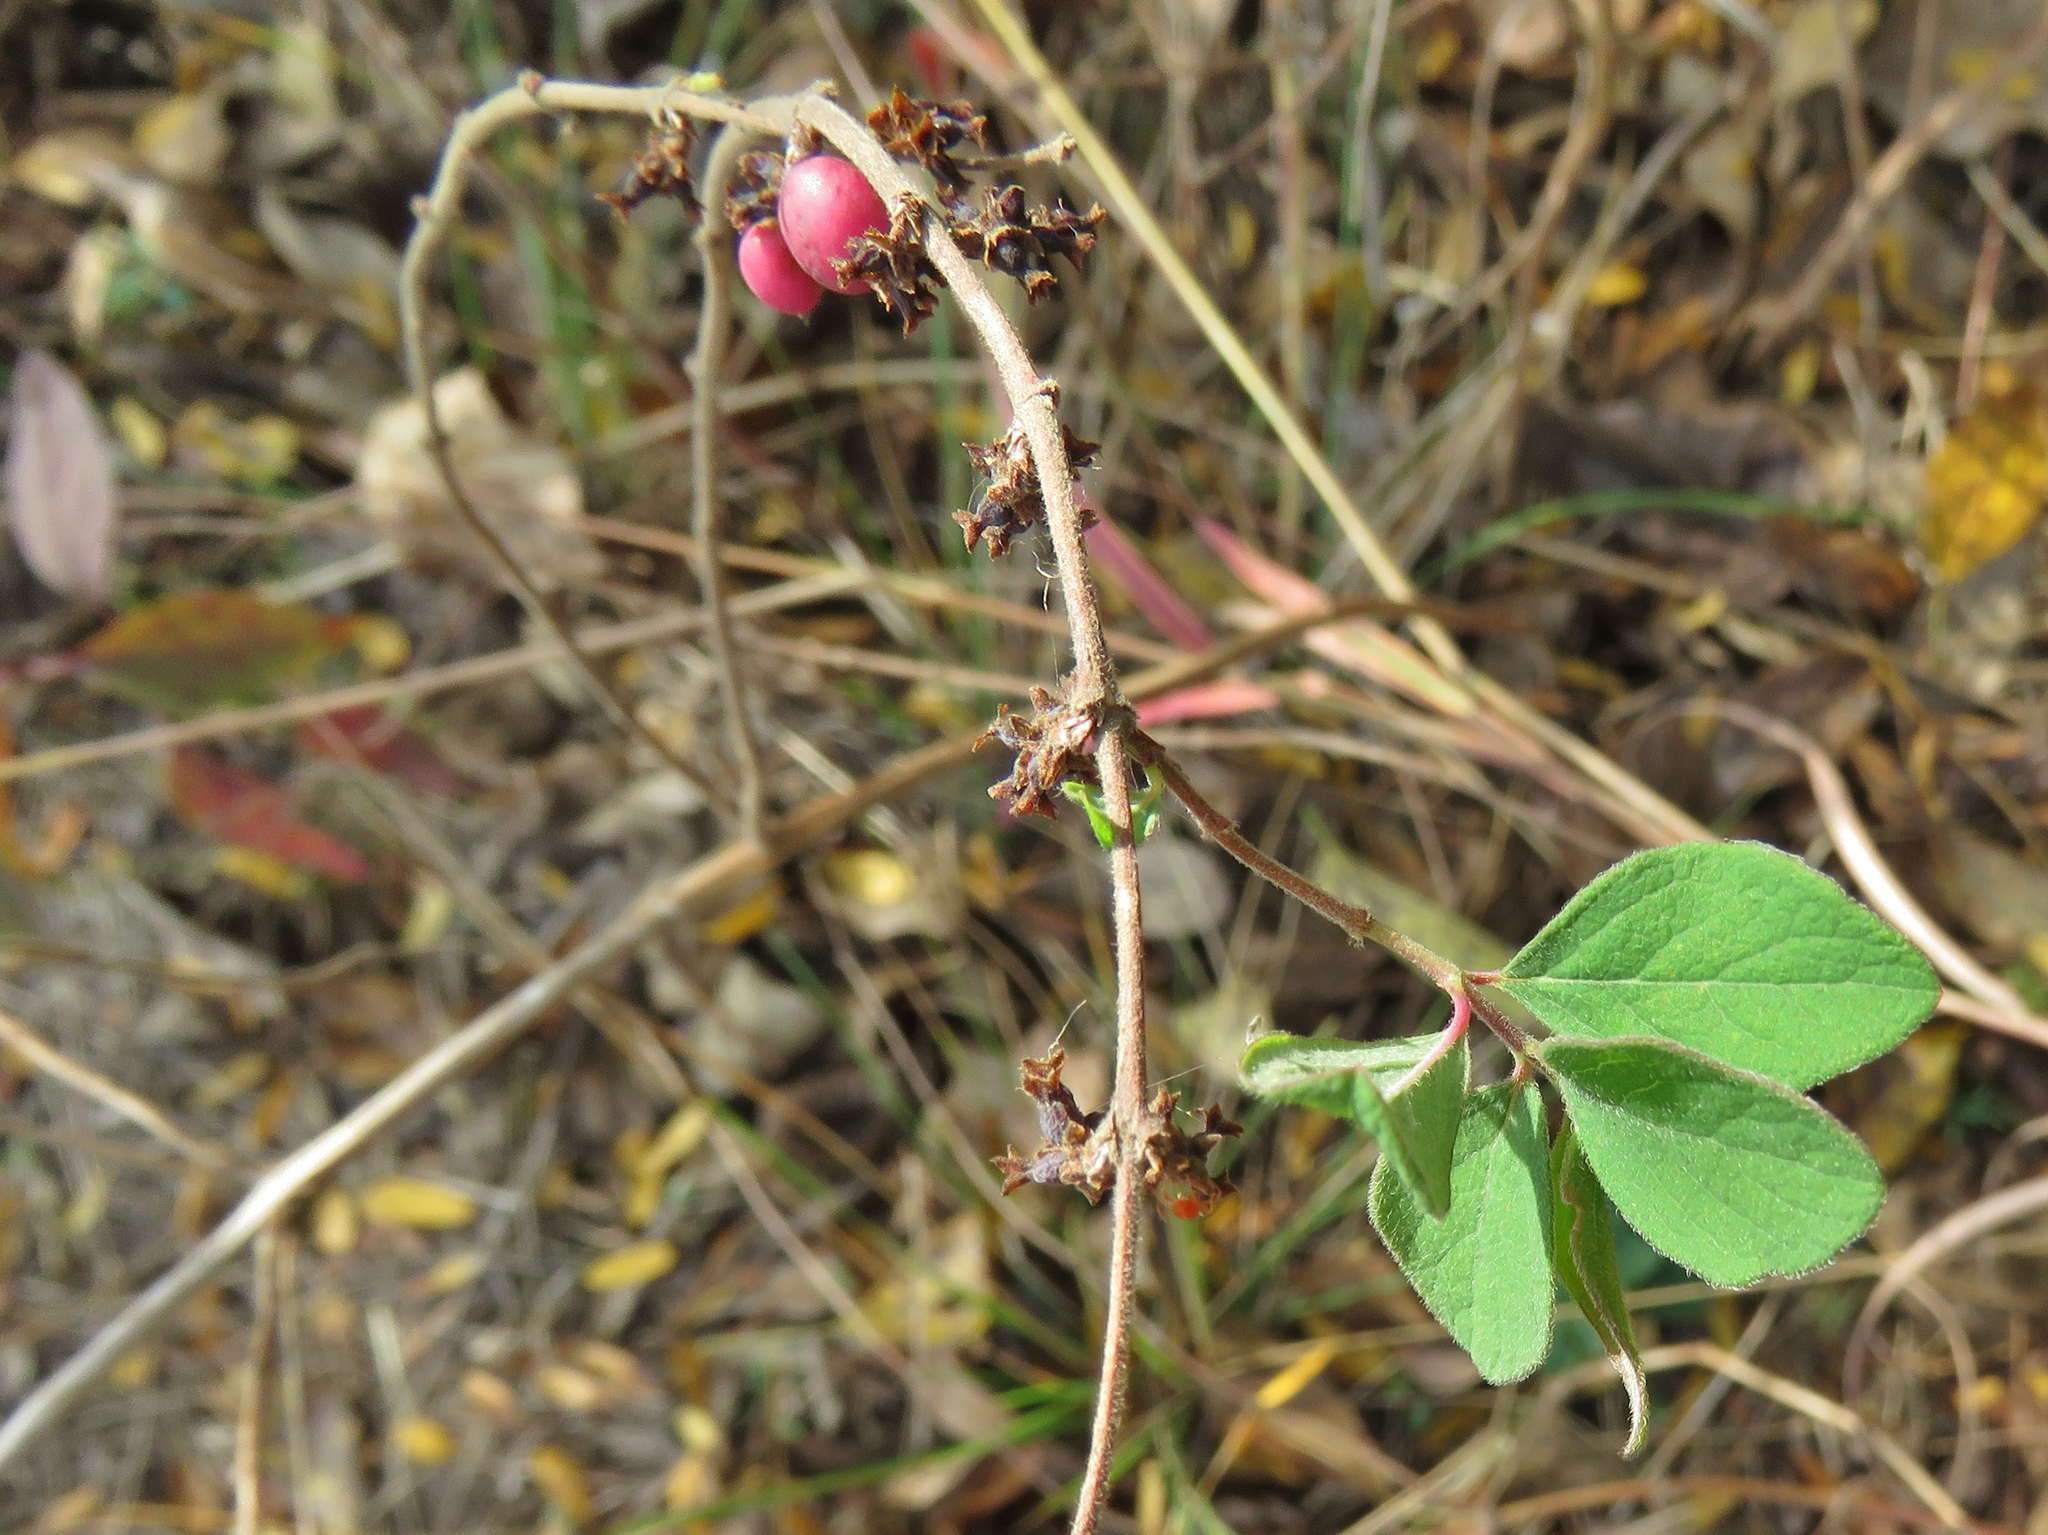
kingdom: Plantae
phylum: Tracheophyta
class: Magnoliopsida
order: Dipsacales
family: Caprifoliaceae
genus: Symphoricarpos
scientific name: Symphoricarpos orbiculatus
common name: Coralberry
